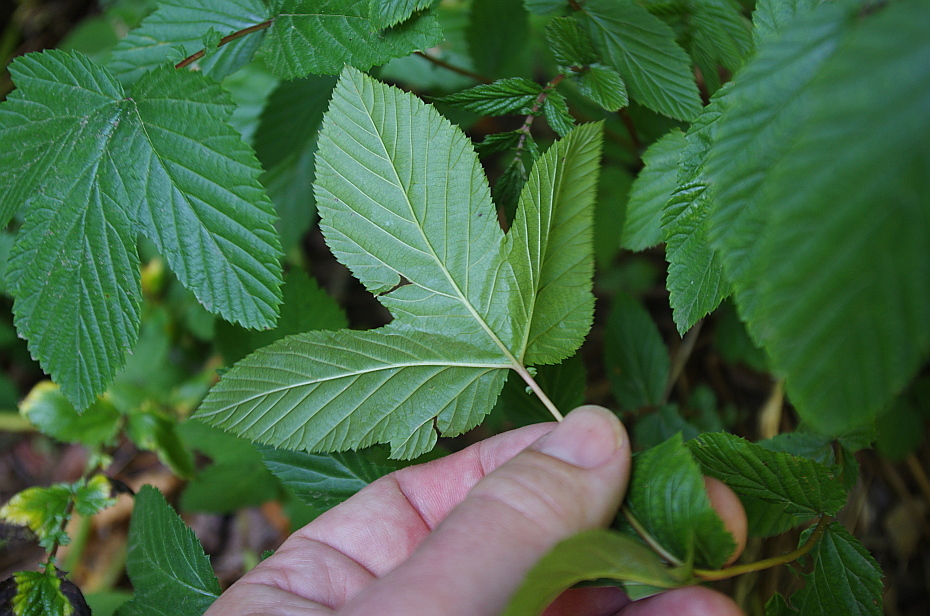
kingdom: Plantae
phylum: Tracheophyta
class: Magnoliopsida
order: Rosales
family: Rosaceae
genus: Filipendula
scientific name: Filipendula ulmaria
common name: Meadowsweet
